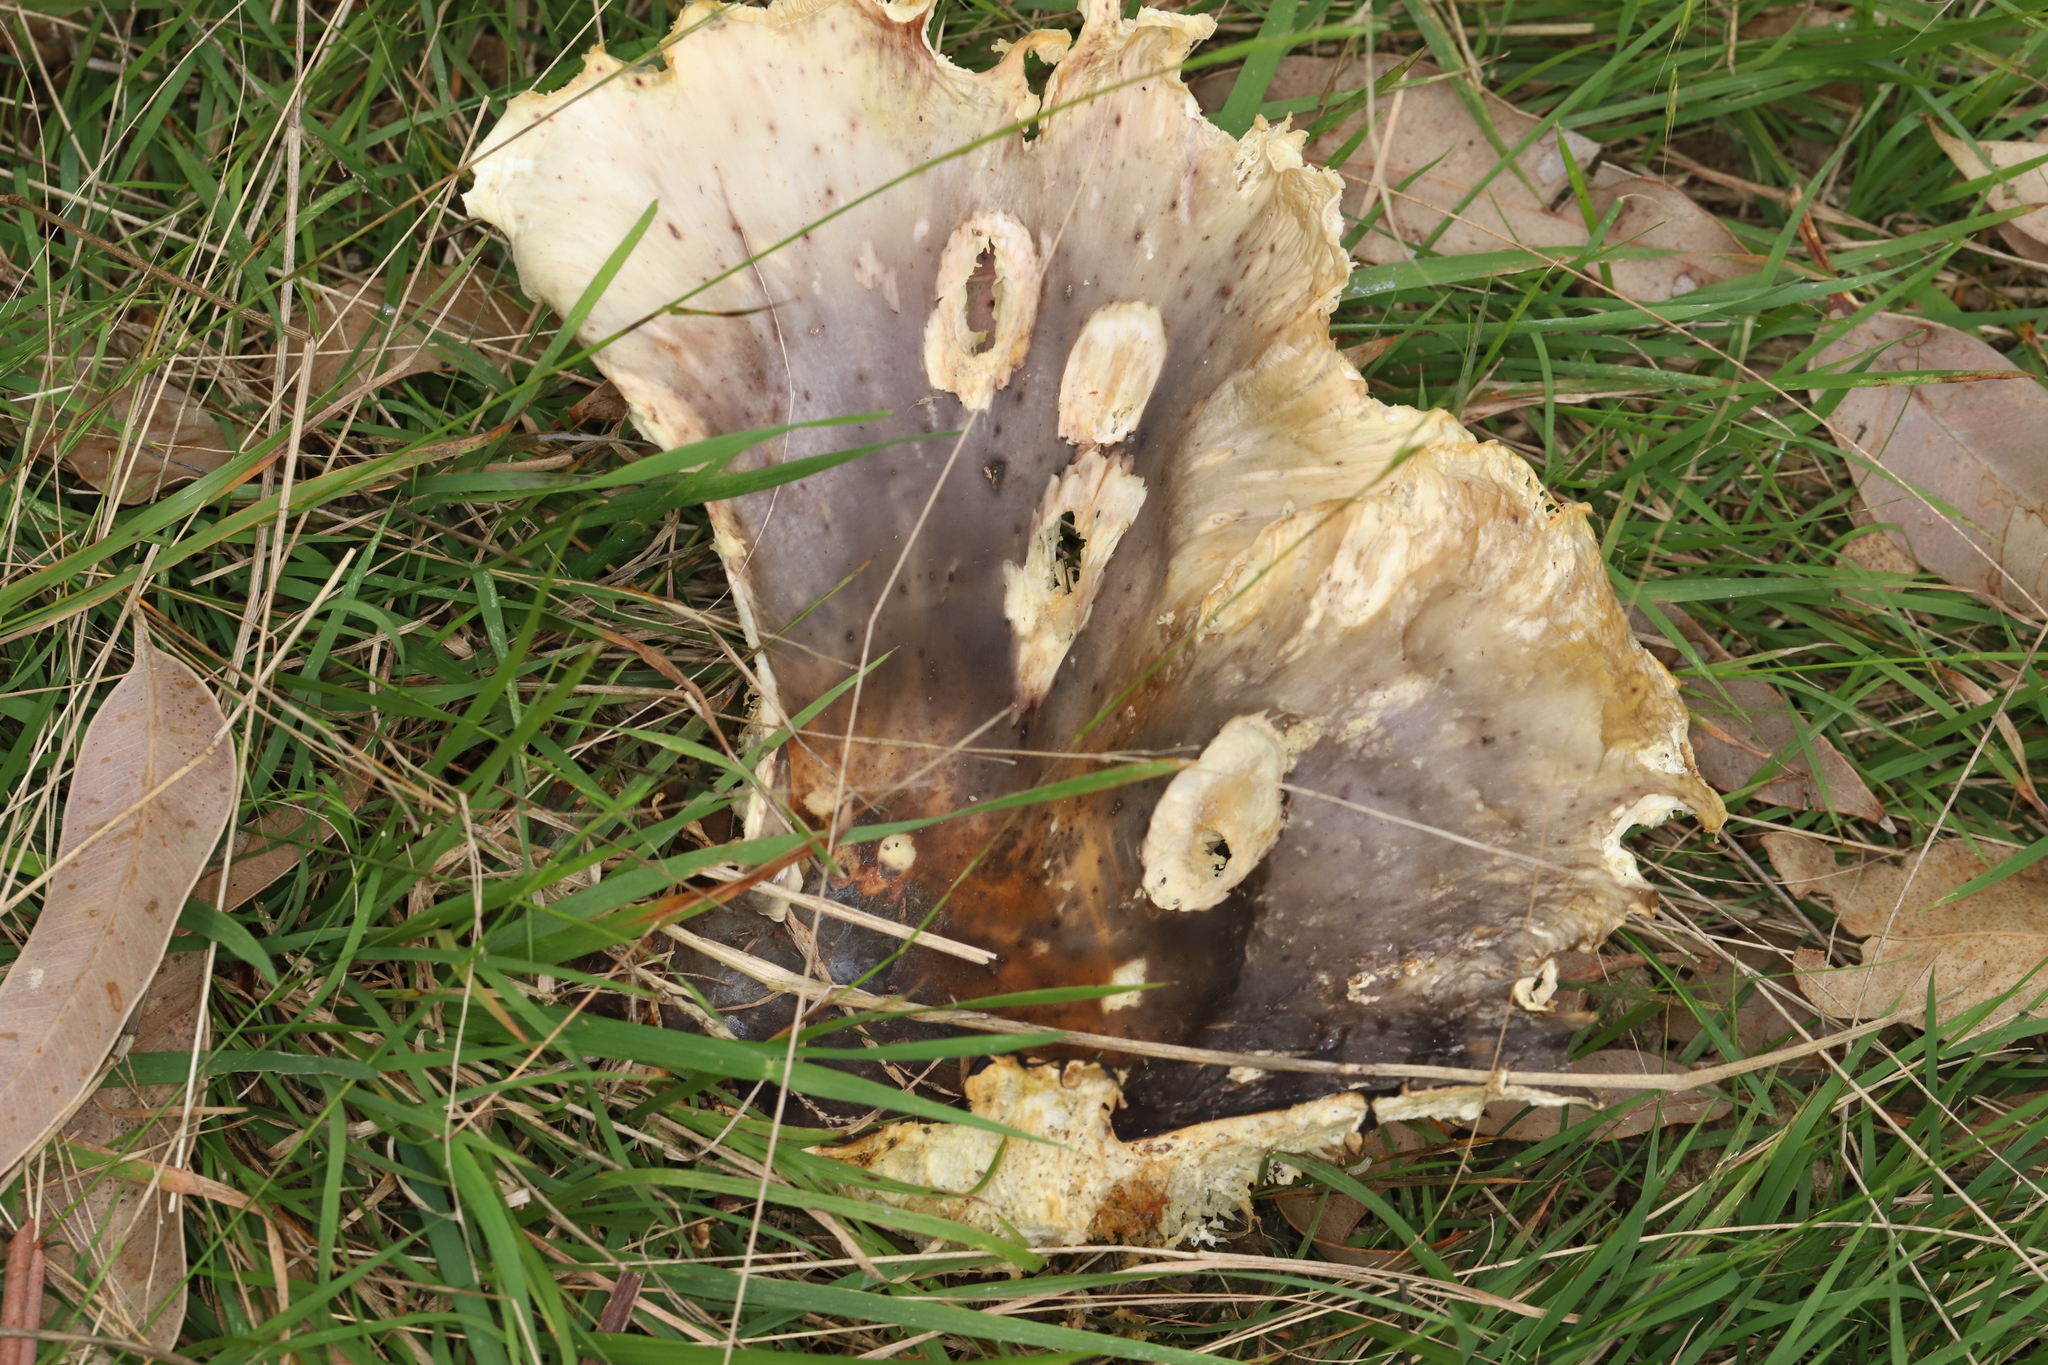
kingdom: Fungi
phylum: Basidiomycota
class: Agaricomycetes
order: Agaricales
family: Omphalotaceae
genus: Omphalotus
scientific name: Omphalotus nidiformis
